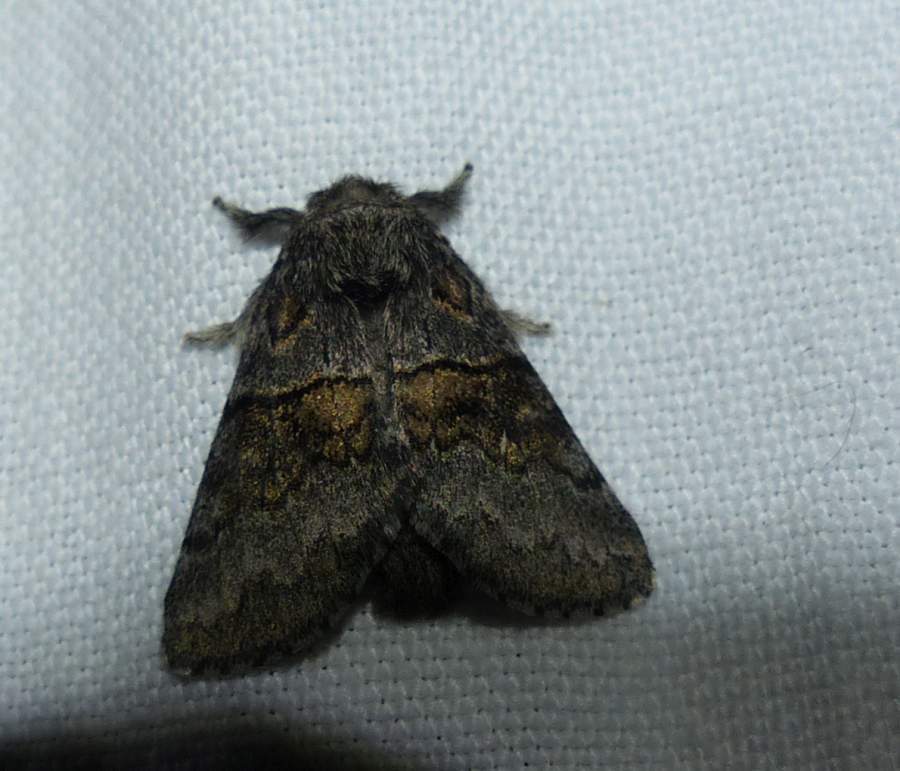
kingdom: Animalia
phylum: Arthropoda
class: Insecta
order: Lepidoptera
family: Notodontidae
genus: Gluphisia
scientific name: Gluphisia septentrionis
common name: Common gluphisia
